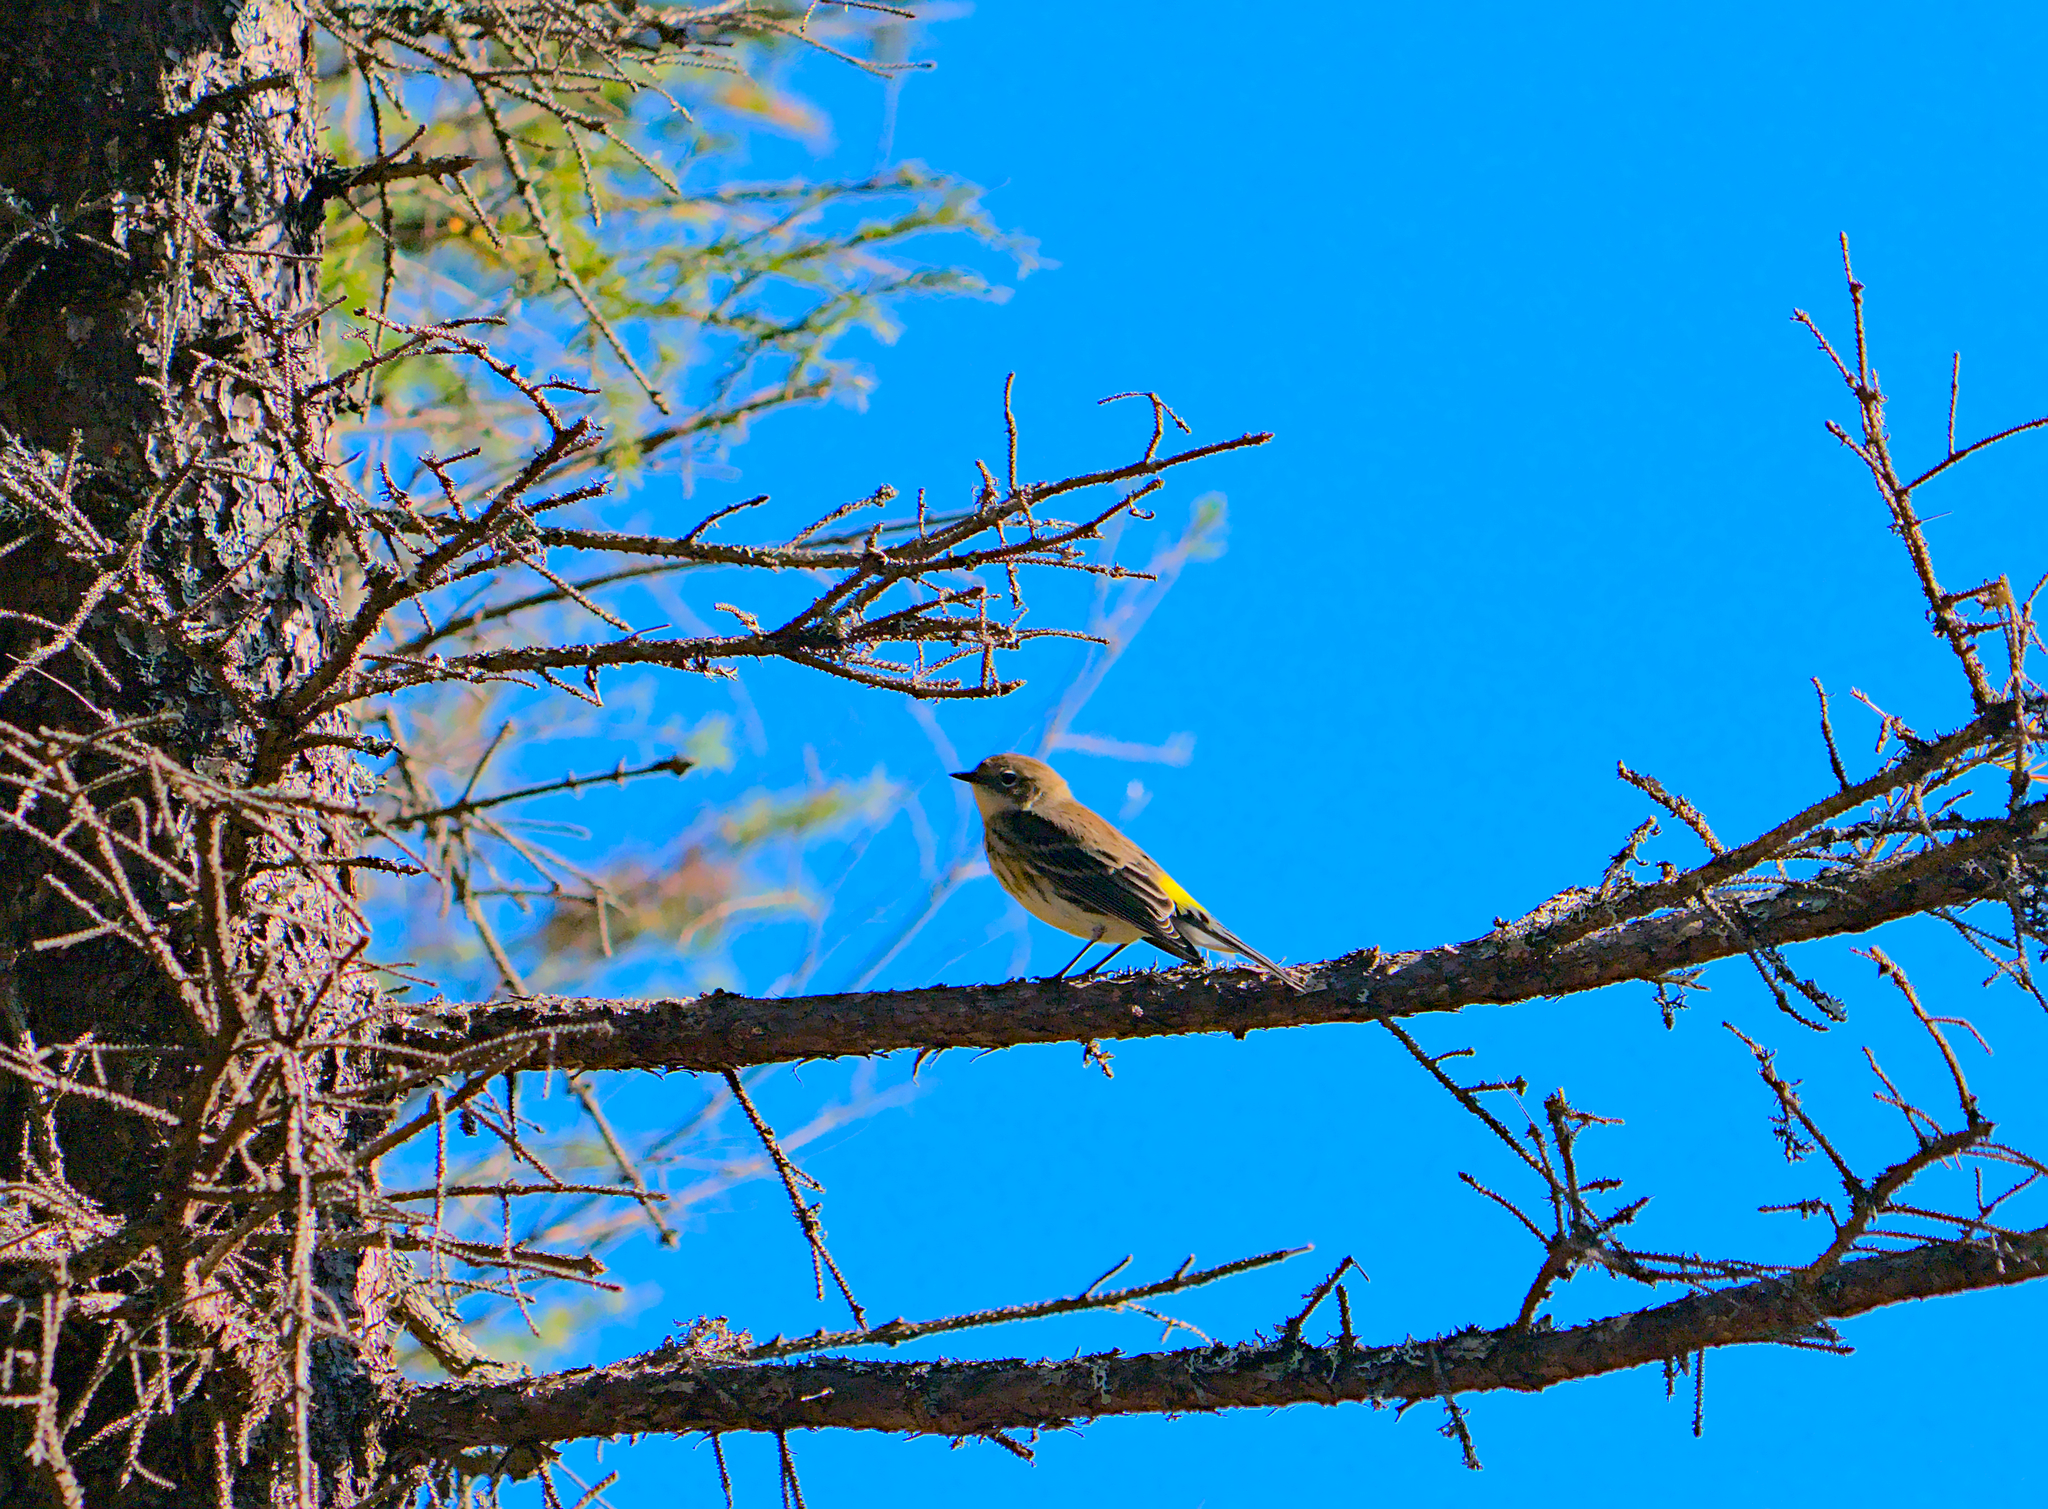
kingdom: Animalia
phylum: Chordata
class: Aves
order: Passeriformes
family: Parulidae
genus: Setophaga
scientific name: Setophaga coronata
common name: Myrtle warbler
